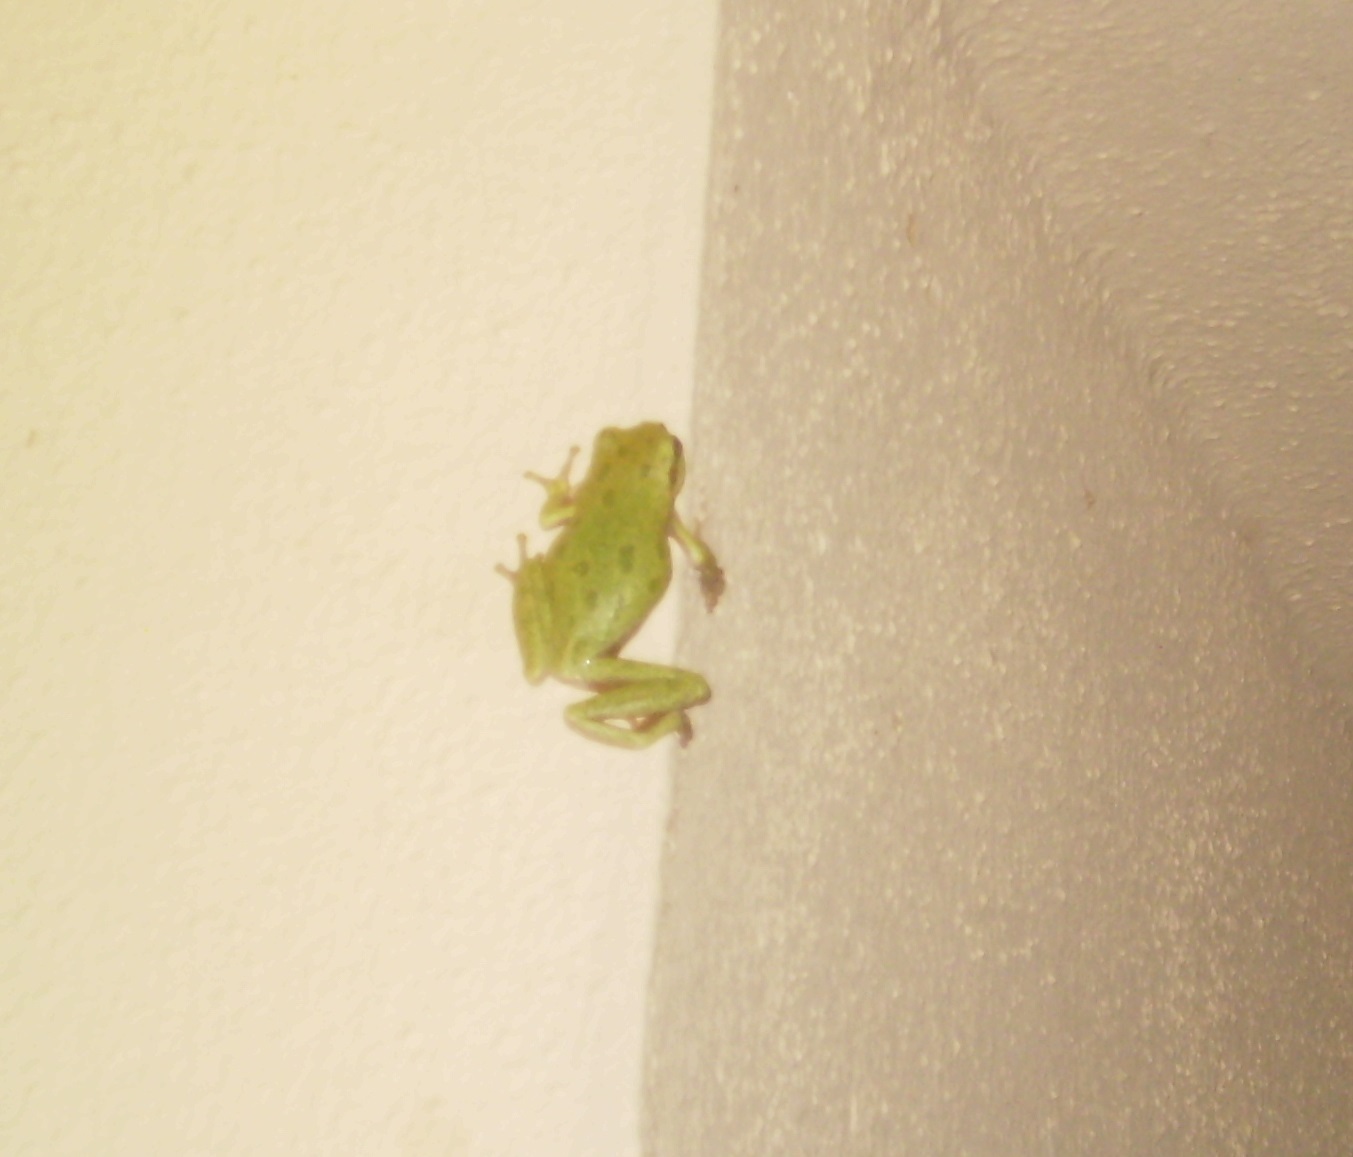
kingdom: Animalia
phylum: Chordata
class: Amphibia
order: Anura
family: Hylidae
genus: Hyla
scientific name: Hyla sarda
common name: Sardinian tree frog
